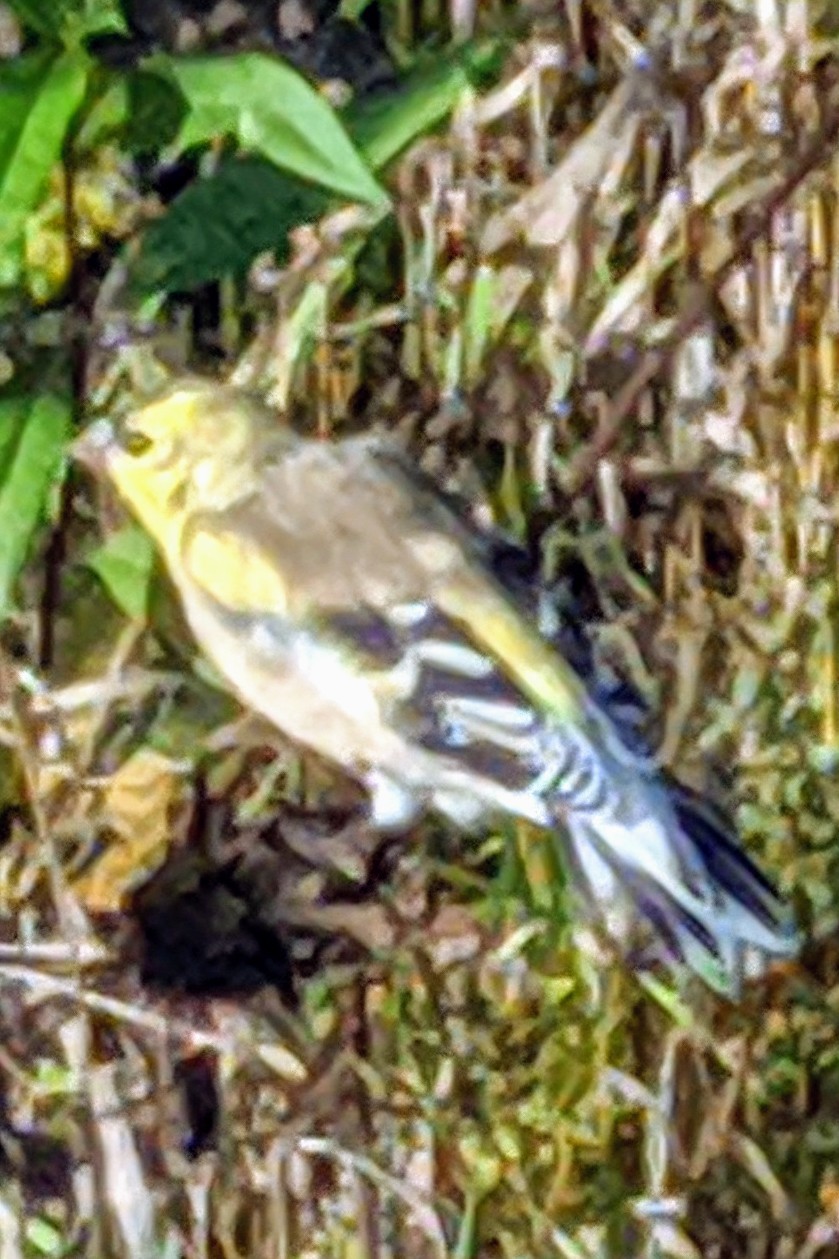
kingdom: Animalia
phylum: Chordata
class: Aves
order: Passeriformes
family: Fringillidae
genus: Spinus
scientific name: Spinus tristis
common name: American goldfinch
